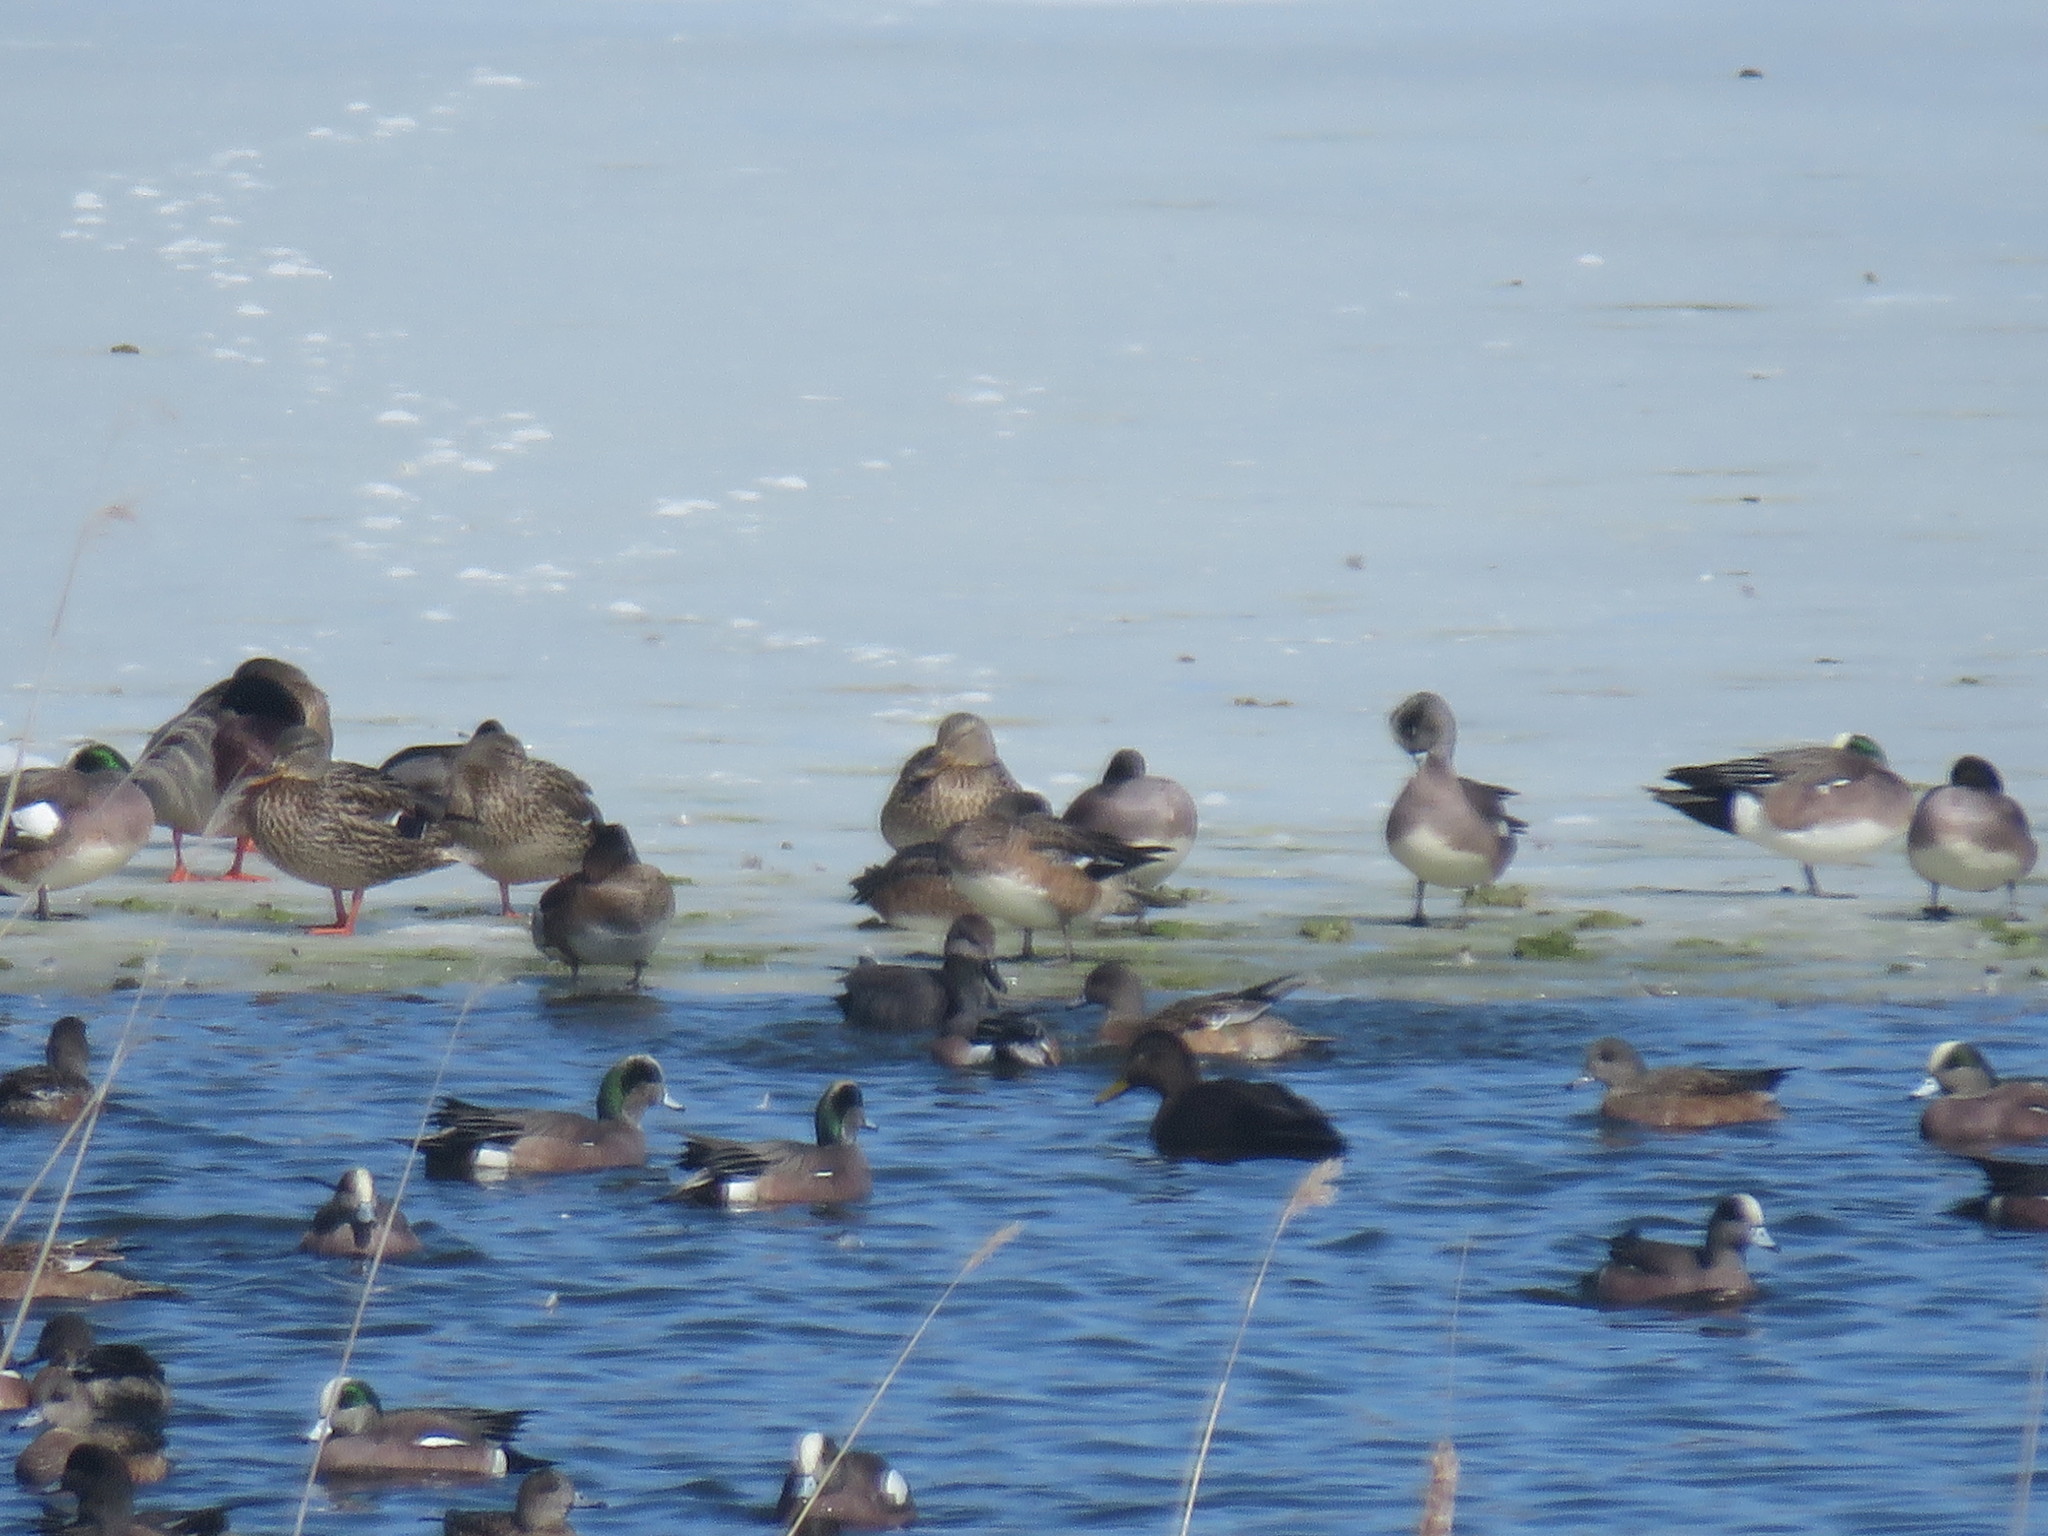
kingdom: Animalia
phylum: Chordata
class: Aves
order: Anseriformes
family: Anatidae
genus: Anas
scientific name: Anas rubripes
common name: American black duck
